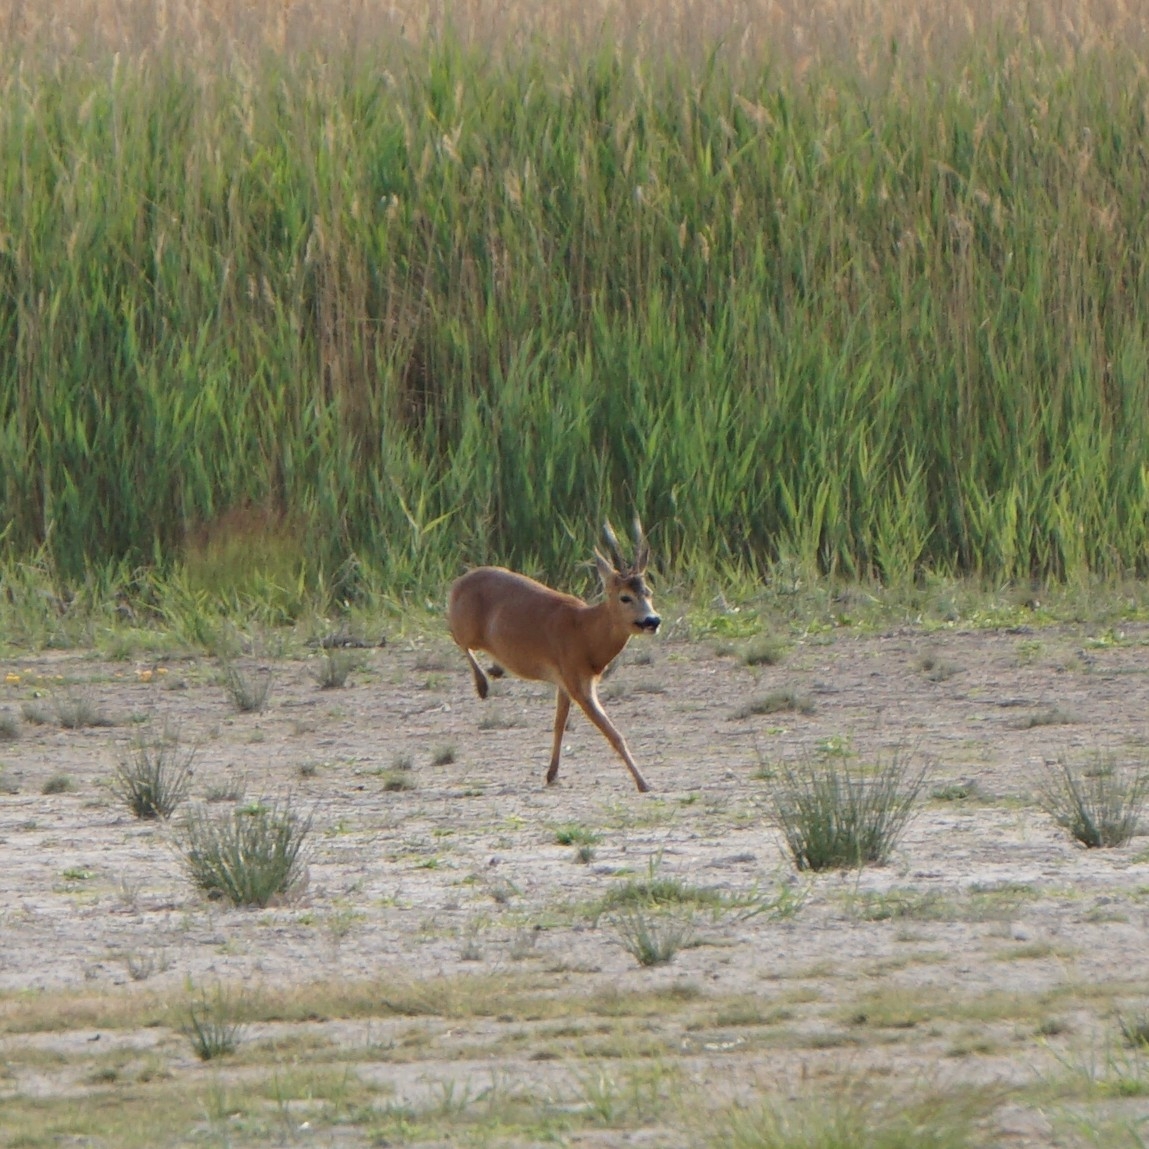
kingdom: Animalia
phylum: Chordata
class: Mammalia
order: Artiodactyla
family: Cervidae
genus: Capreolus
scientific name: Capreolus capreolus
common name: Western roe deer
